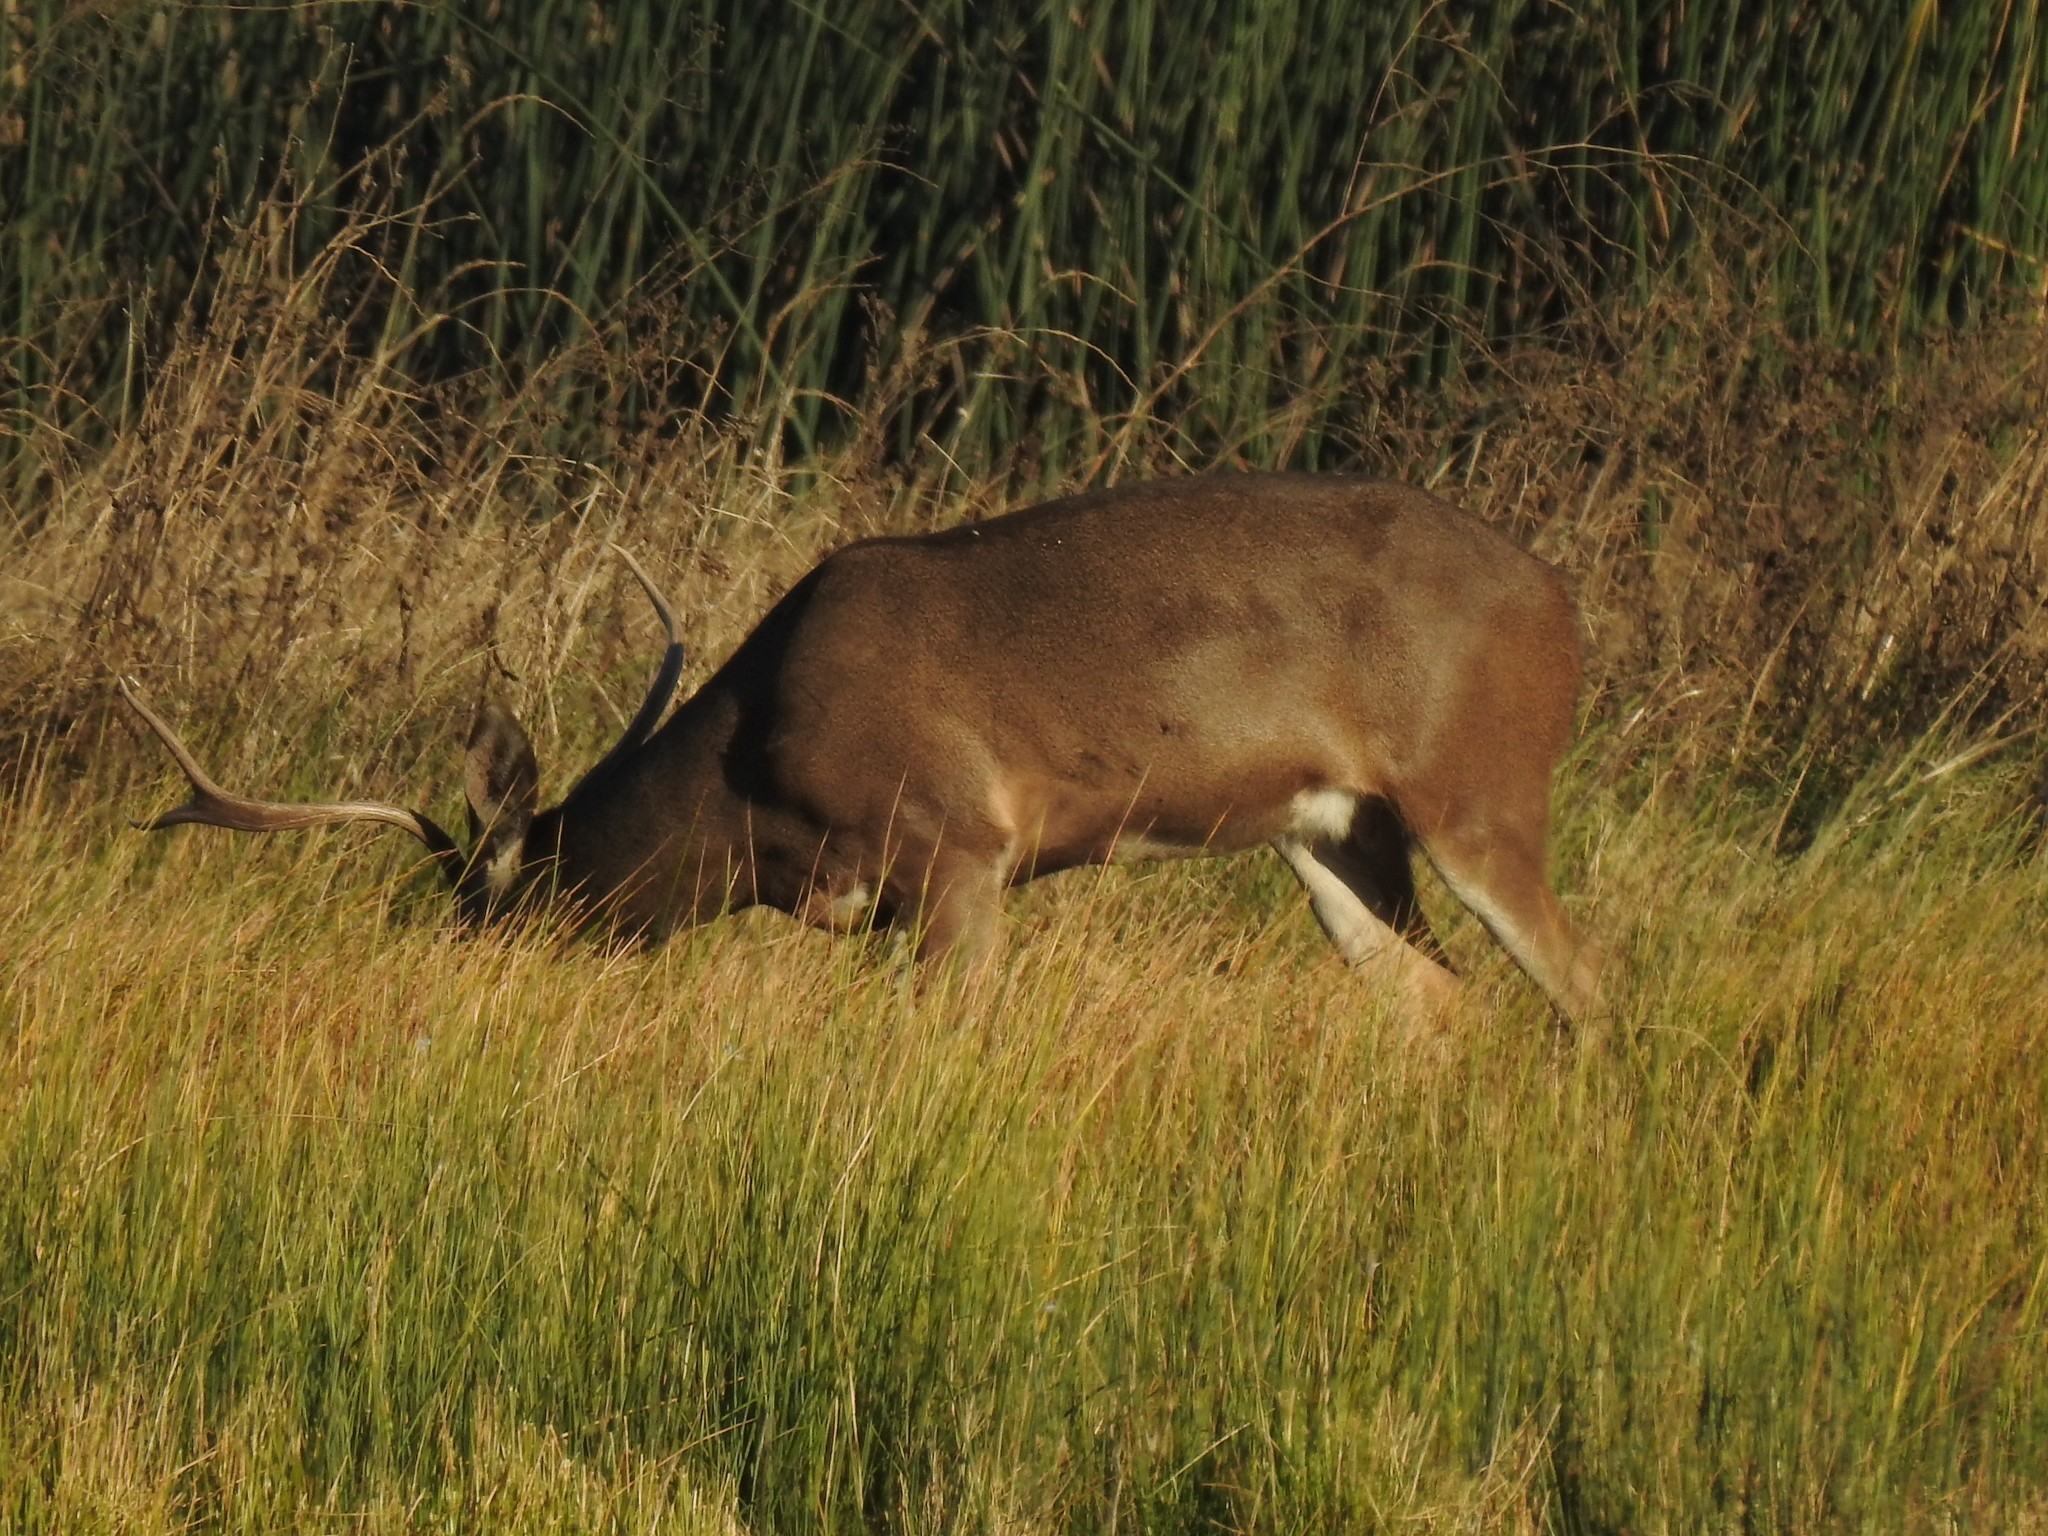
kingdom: Animalia
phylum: Chordata
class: Mammalia
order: Artiodactyla
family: Cervidae
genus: Odocoileus
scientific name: Odocoileus hemionus
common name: Mule deer
